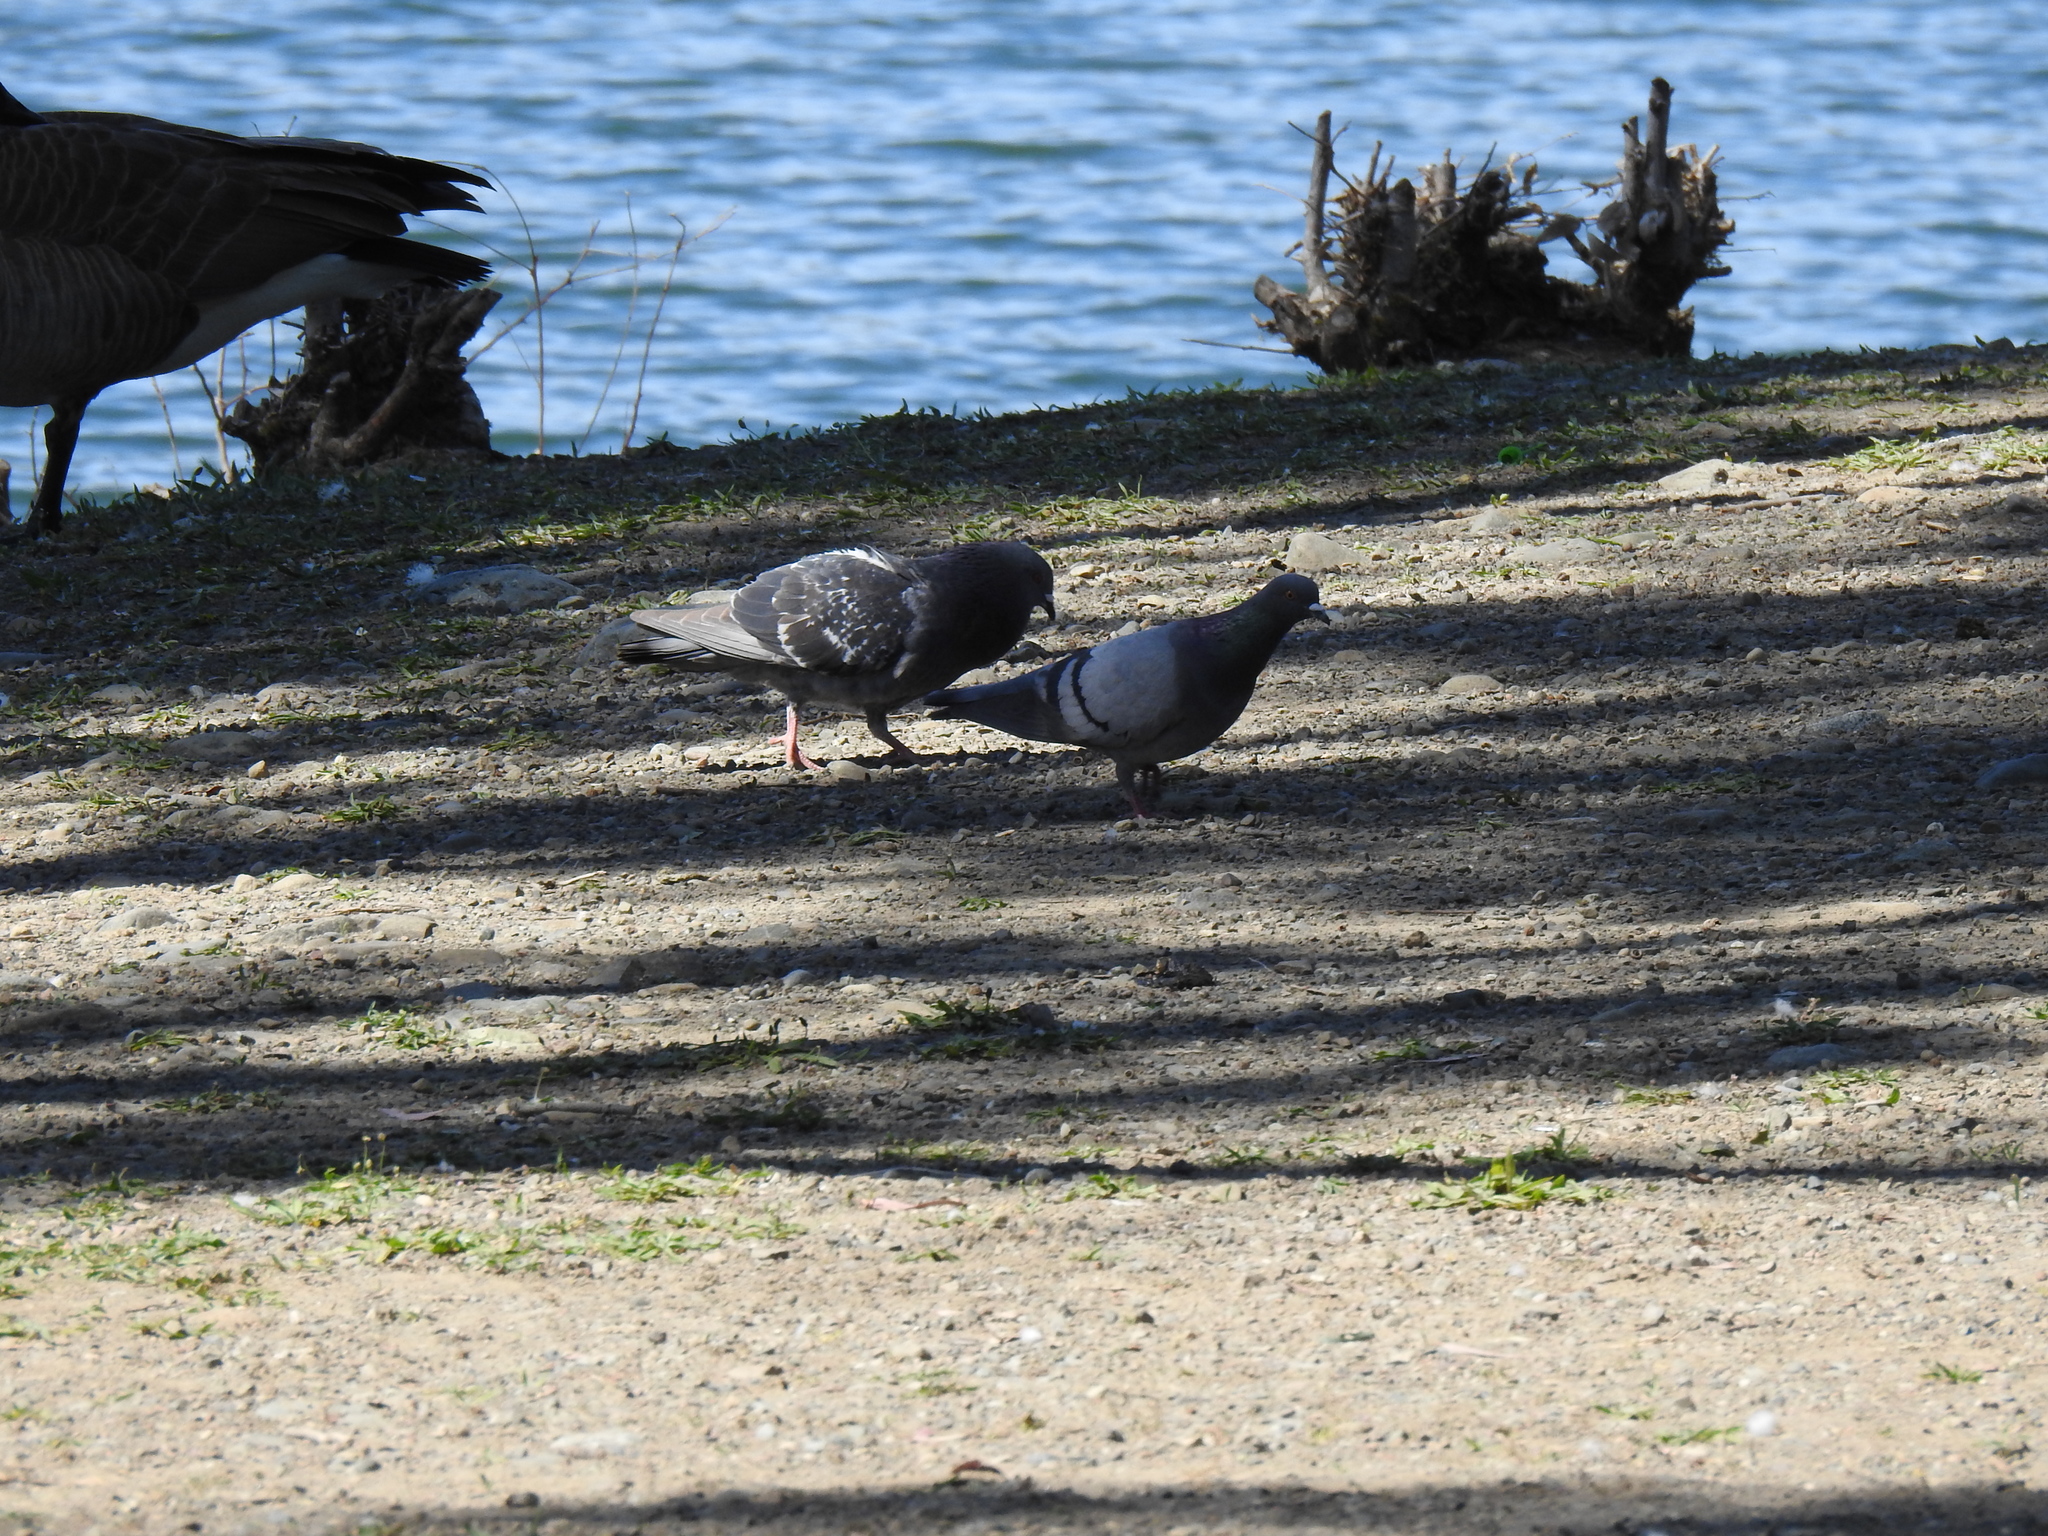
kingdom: Animalia
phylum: Chordata
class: Aves
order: Columbiformes
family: Columbidae
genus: Columba
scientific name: Columba livia
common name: Rock pigeon
